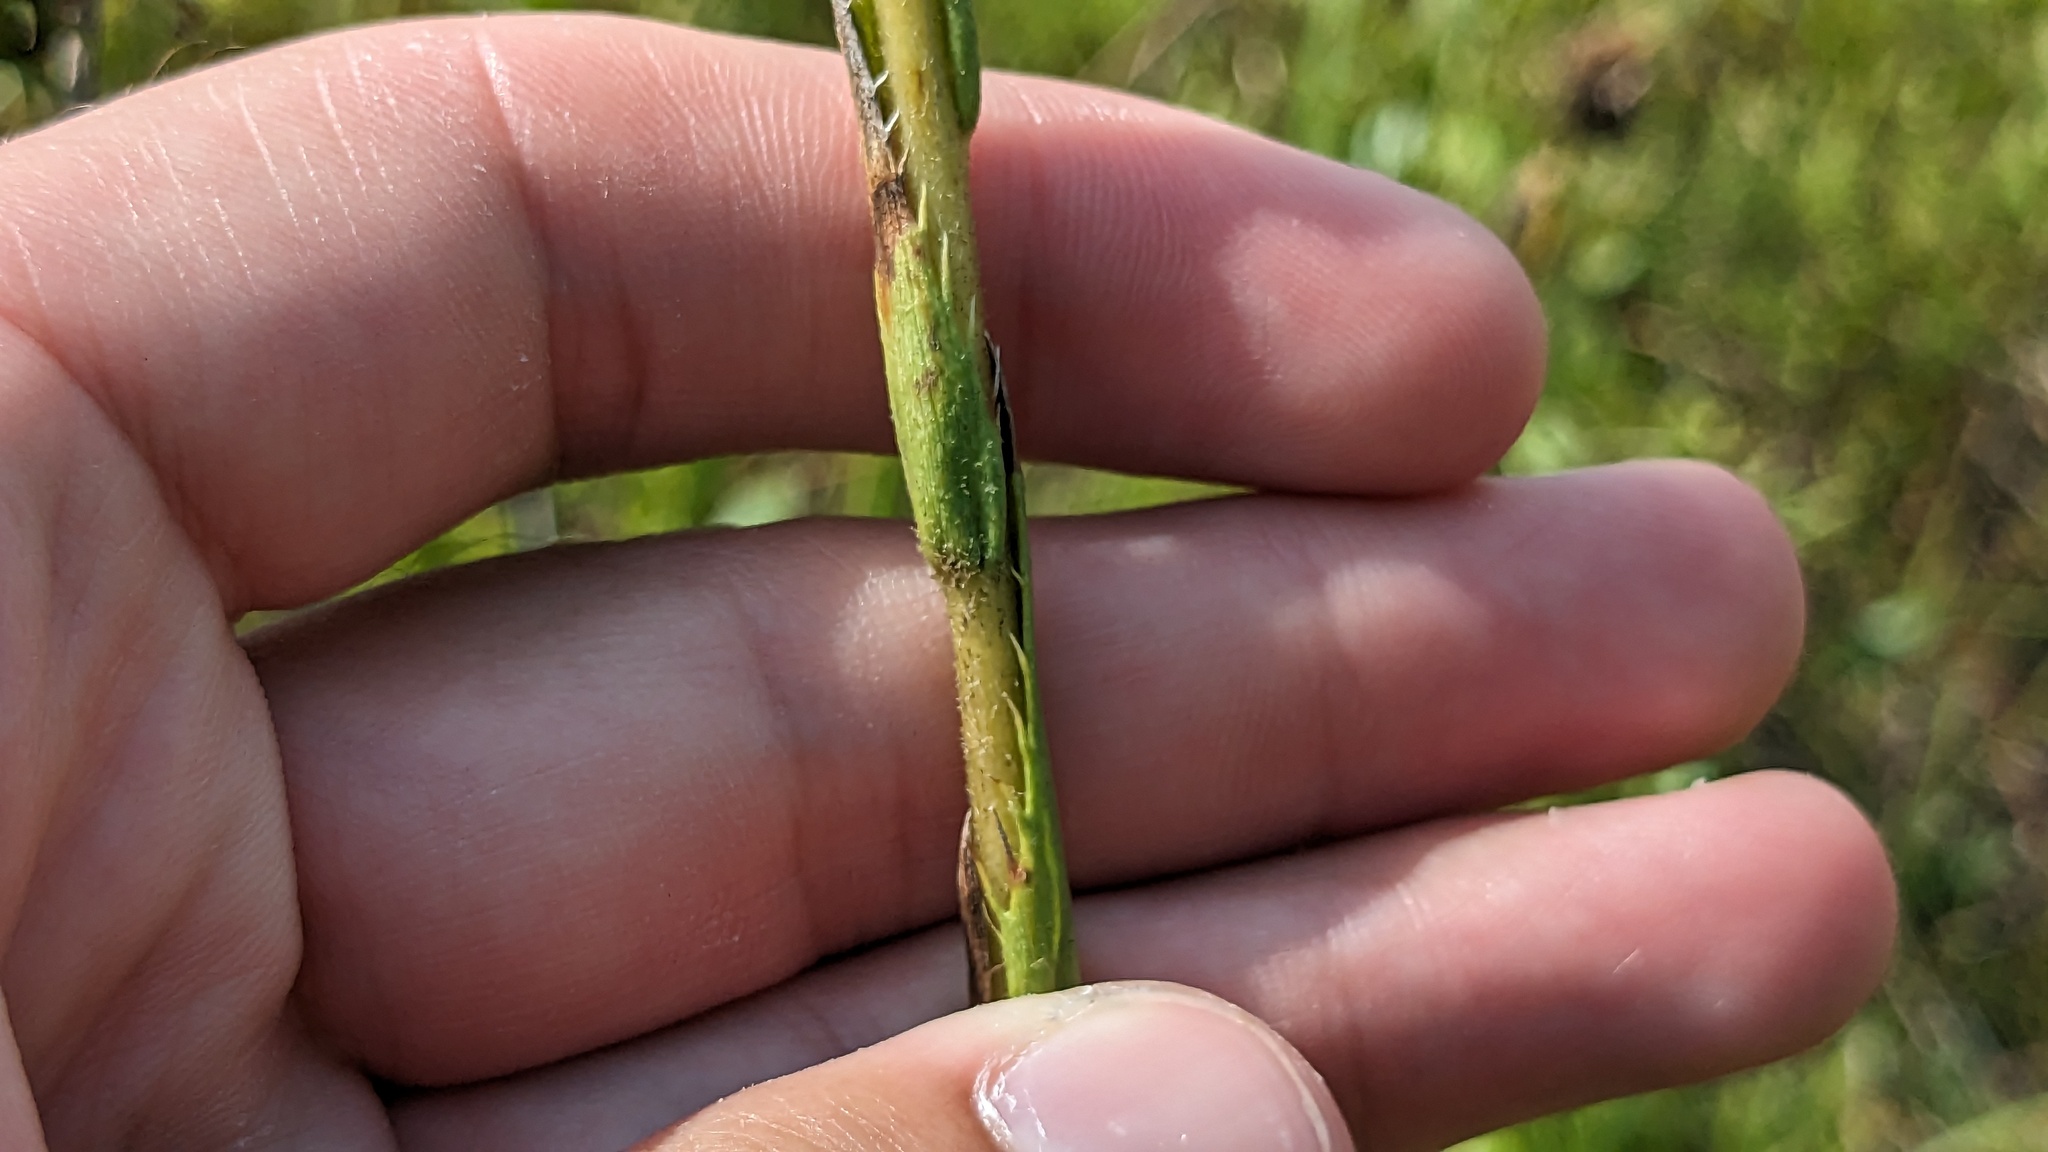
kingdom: Plantae
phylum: Tracheophyta
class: Magnoliopsida
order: Asterales
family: Asteraceae
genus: Eurybia
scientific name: Eurybia eryngiifolia
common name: Thistle-leaf aster
